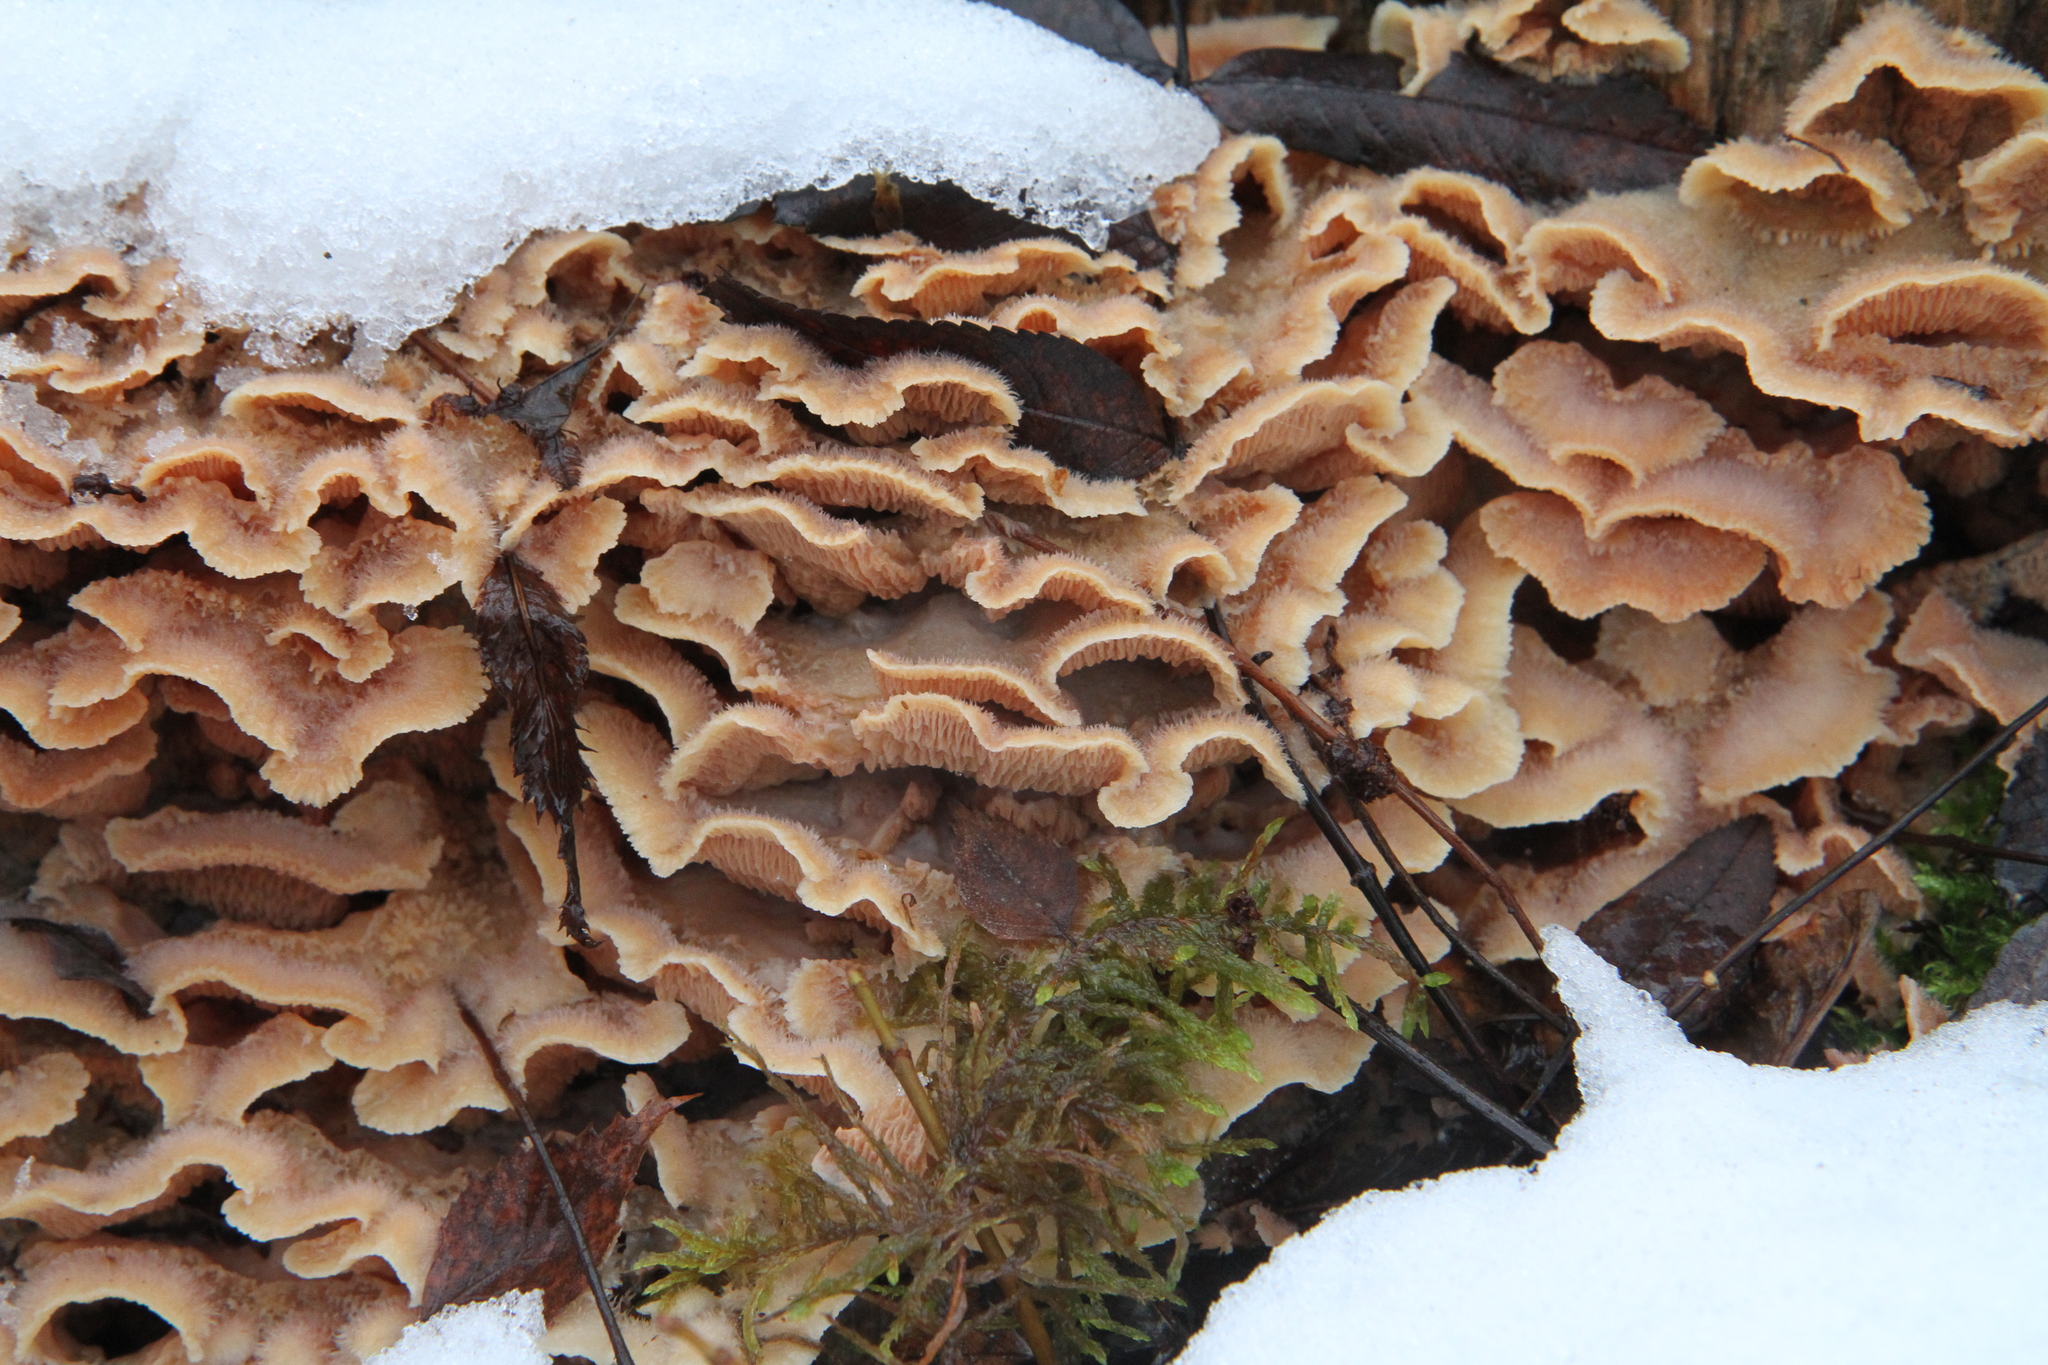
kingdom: Fungi
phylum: Basidiomycota
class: Agaricomycetes
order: Polyporales
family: Meruliaceae
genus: Phlebia
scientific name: Phlebia tremellosa
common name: Jelly rot
